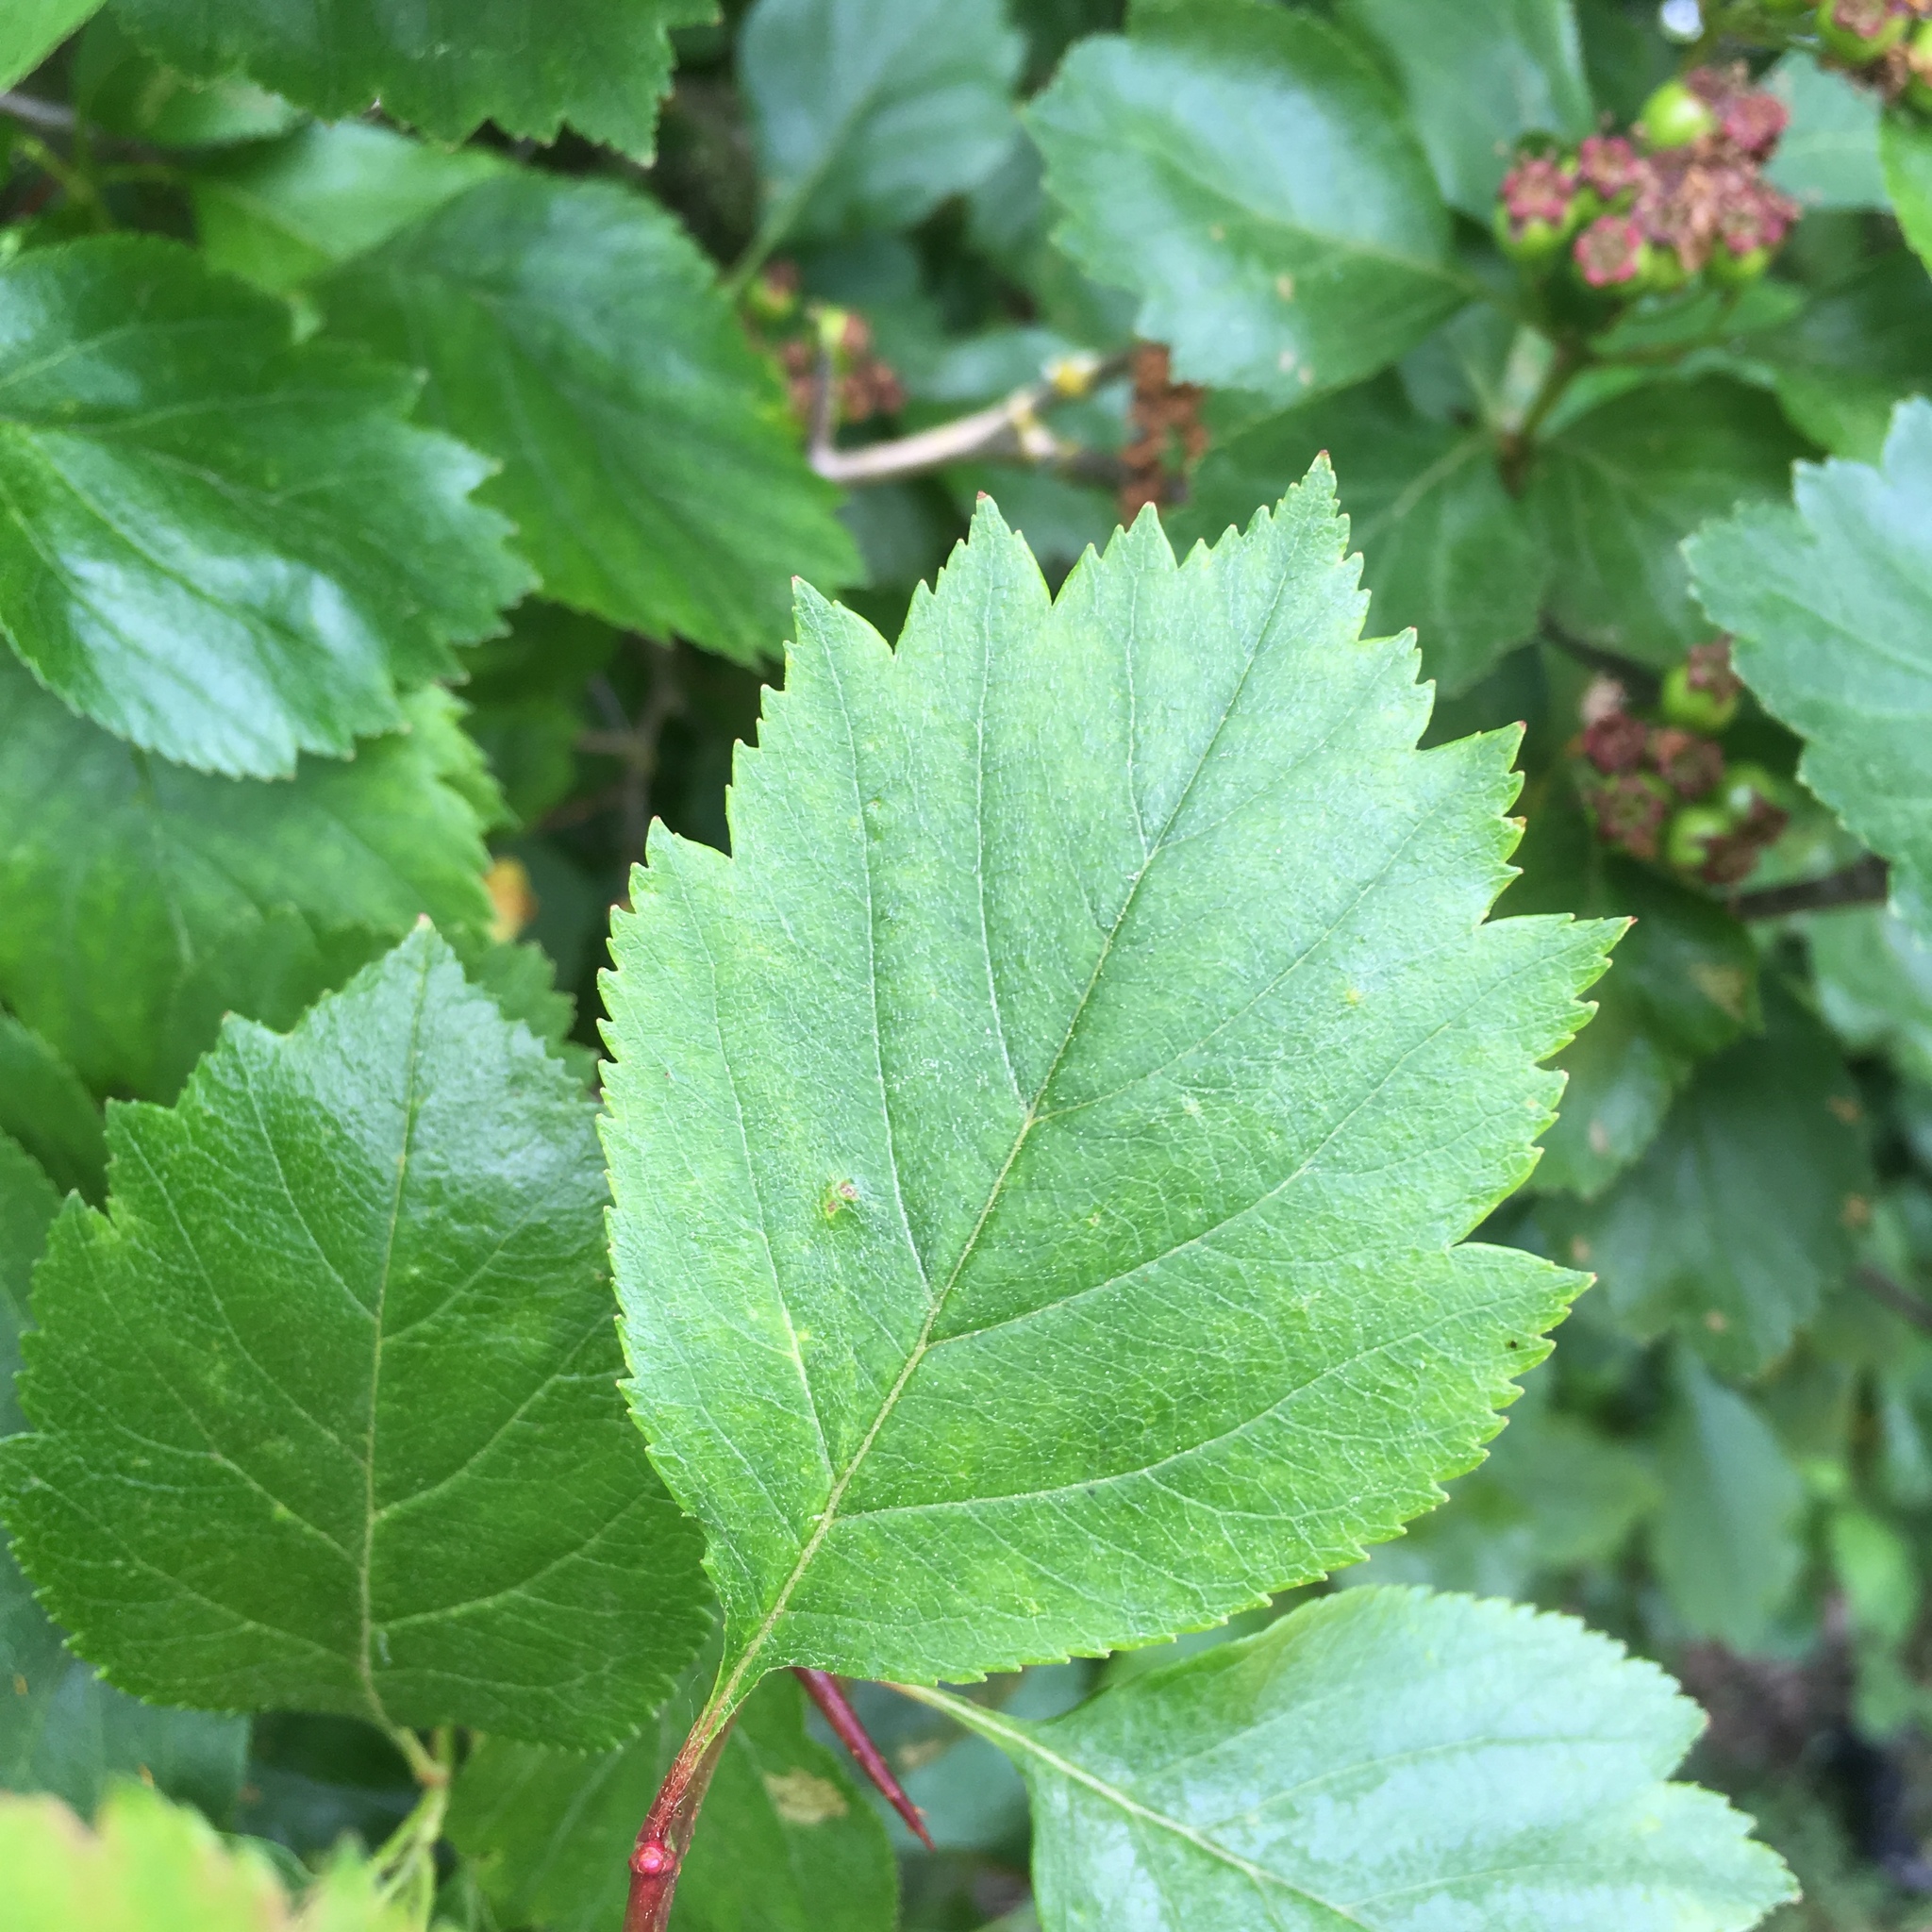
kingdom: Plantae
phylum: Tracheophyta
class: Magnoliopsida
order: Rosales
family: Rosaceae
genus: Crataegus
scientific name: Crataegus douglasii
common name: Black hawthorn
